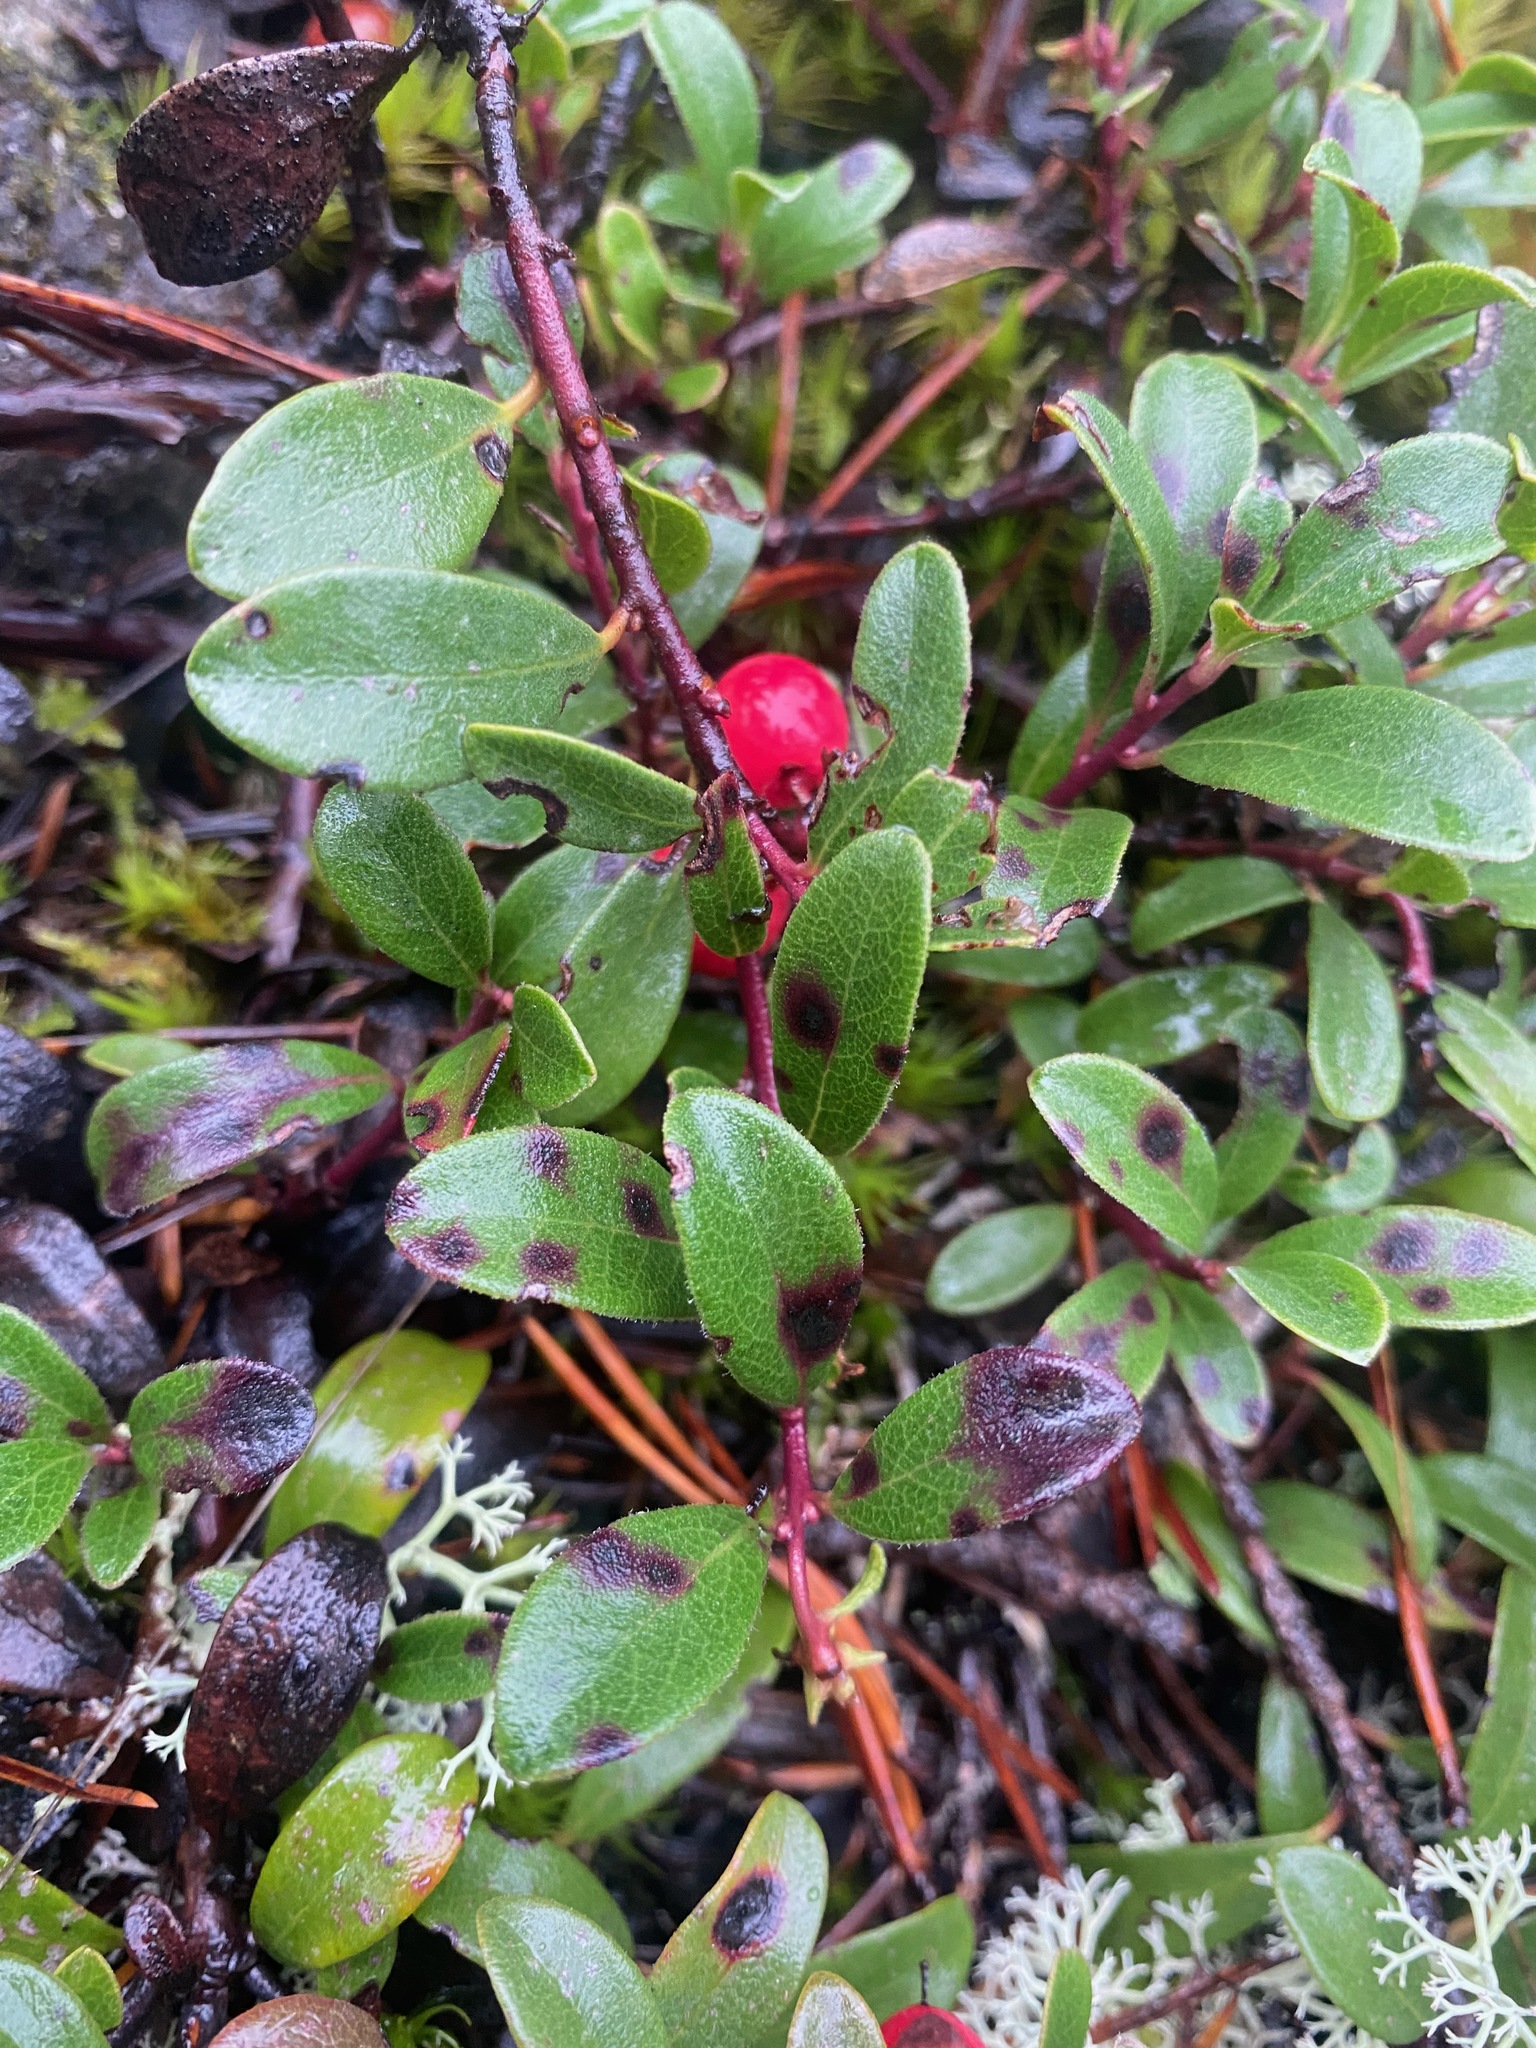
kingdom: Plantae
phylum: Tracheophyta
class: Magnoliopsida
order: Ericales
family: Ericaceae
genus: Arctostaphylos
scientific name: Arctostaphylos uva-ursi
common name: Bearberry
